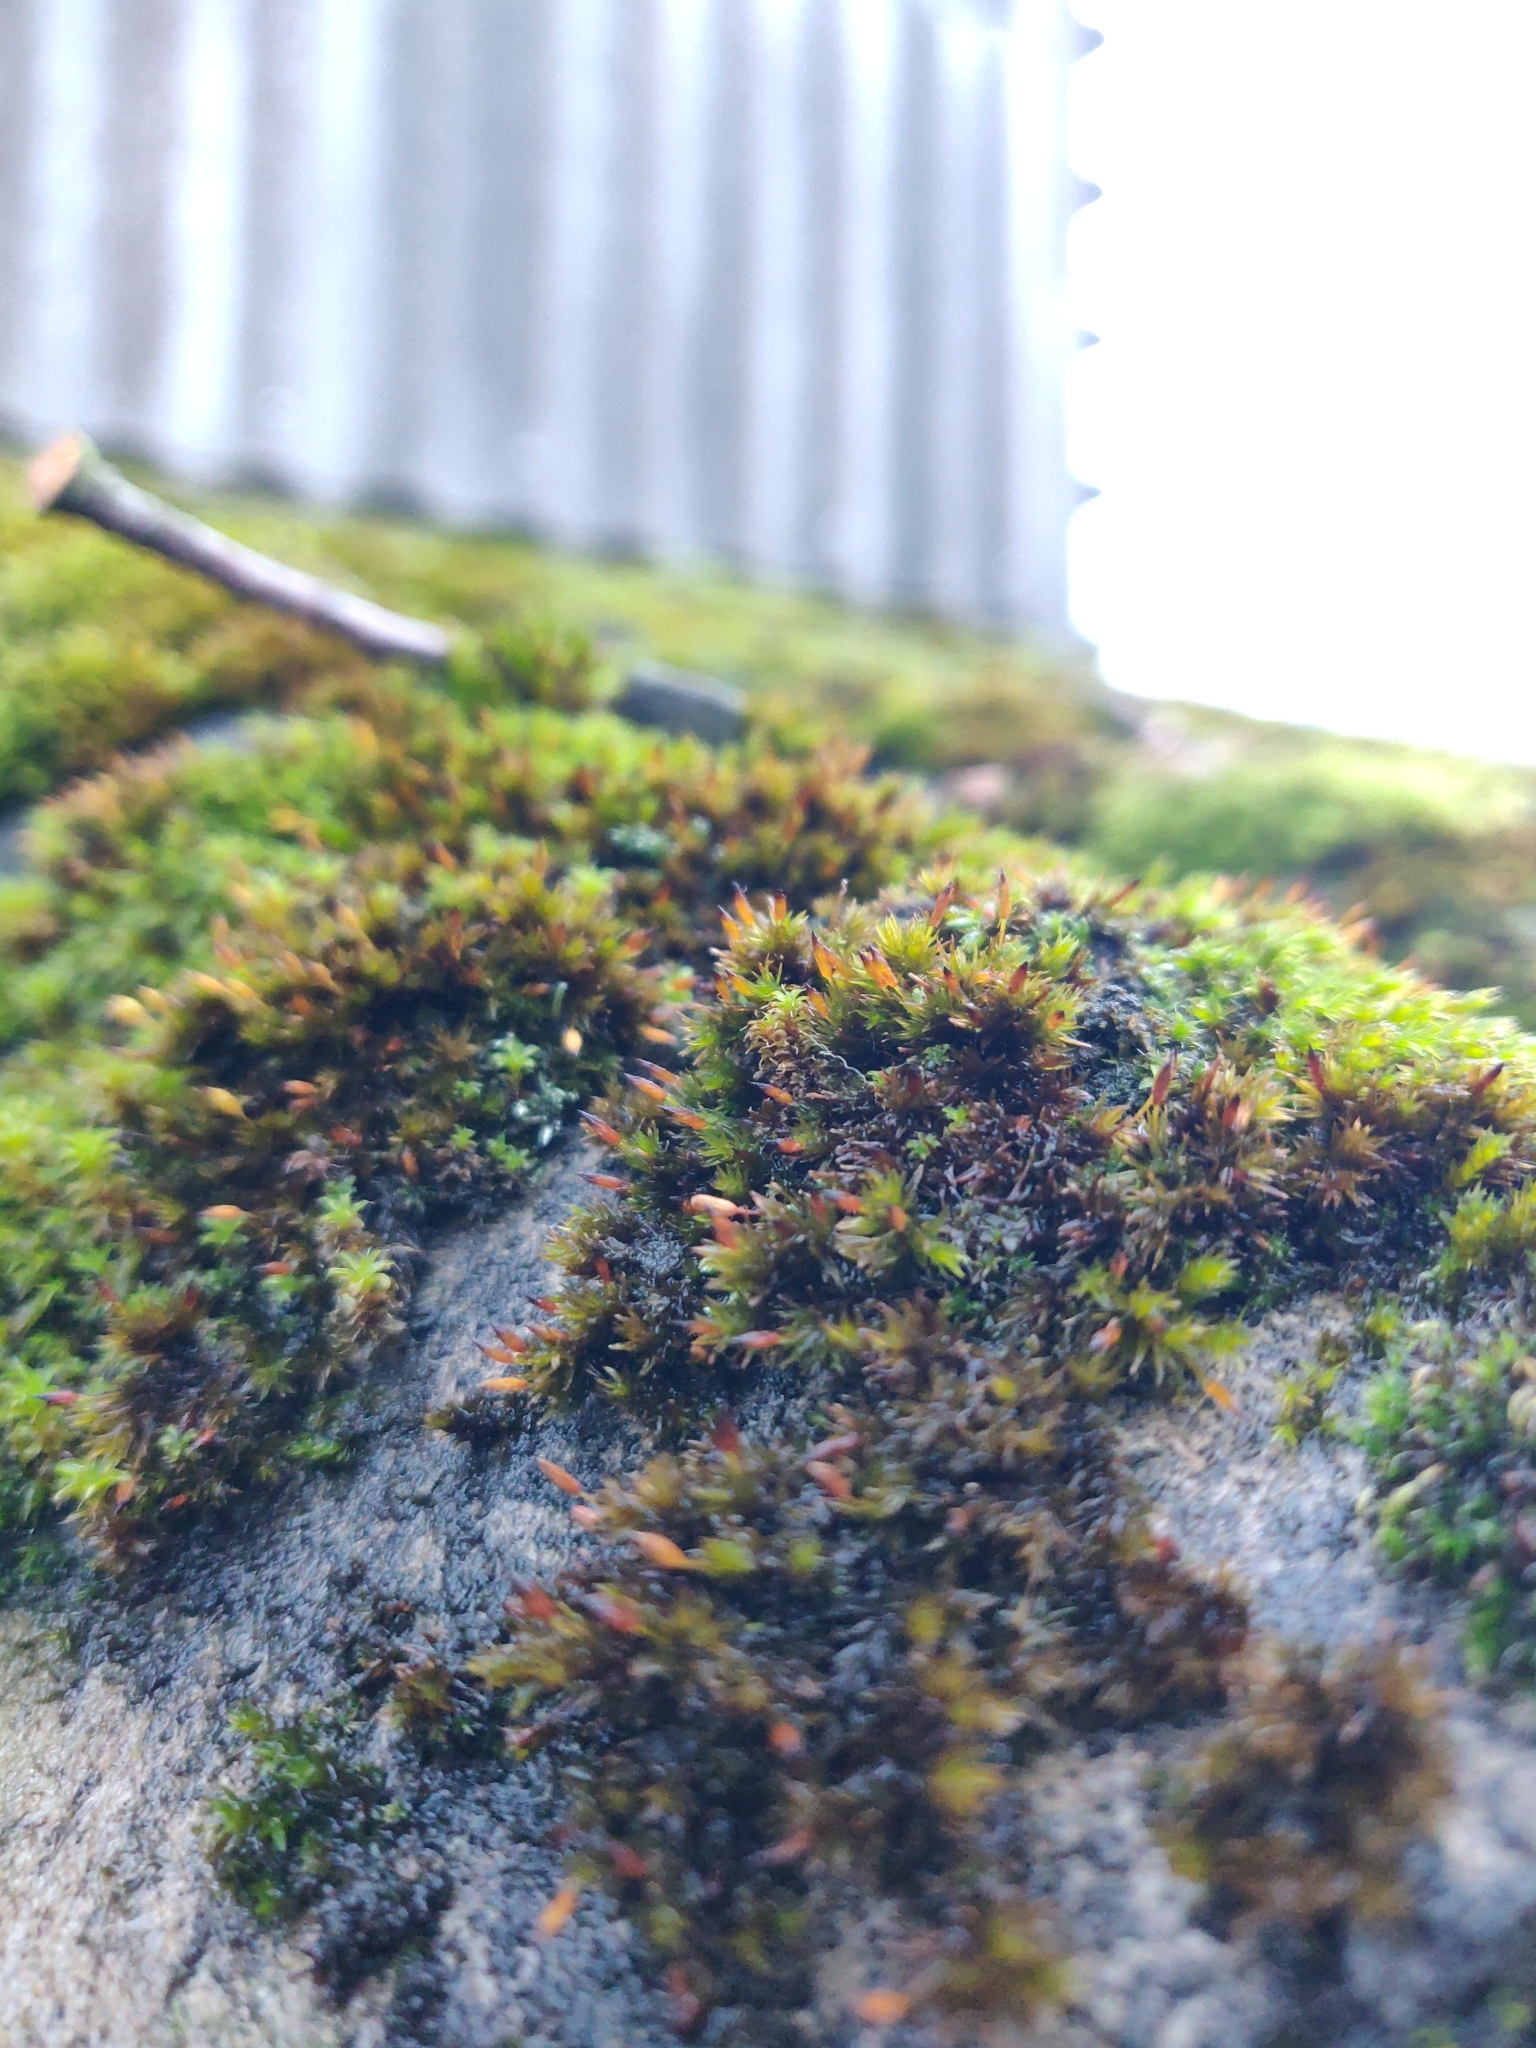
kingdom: Plantae
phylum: Bryophyta
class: Bryopsida
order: Orthotrichales
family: Orthotrichaceae
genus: Orthotrichum
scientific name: Orthotrichum anomalum
